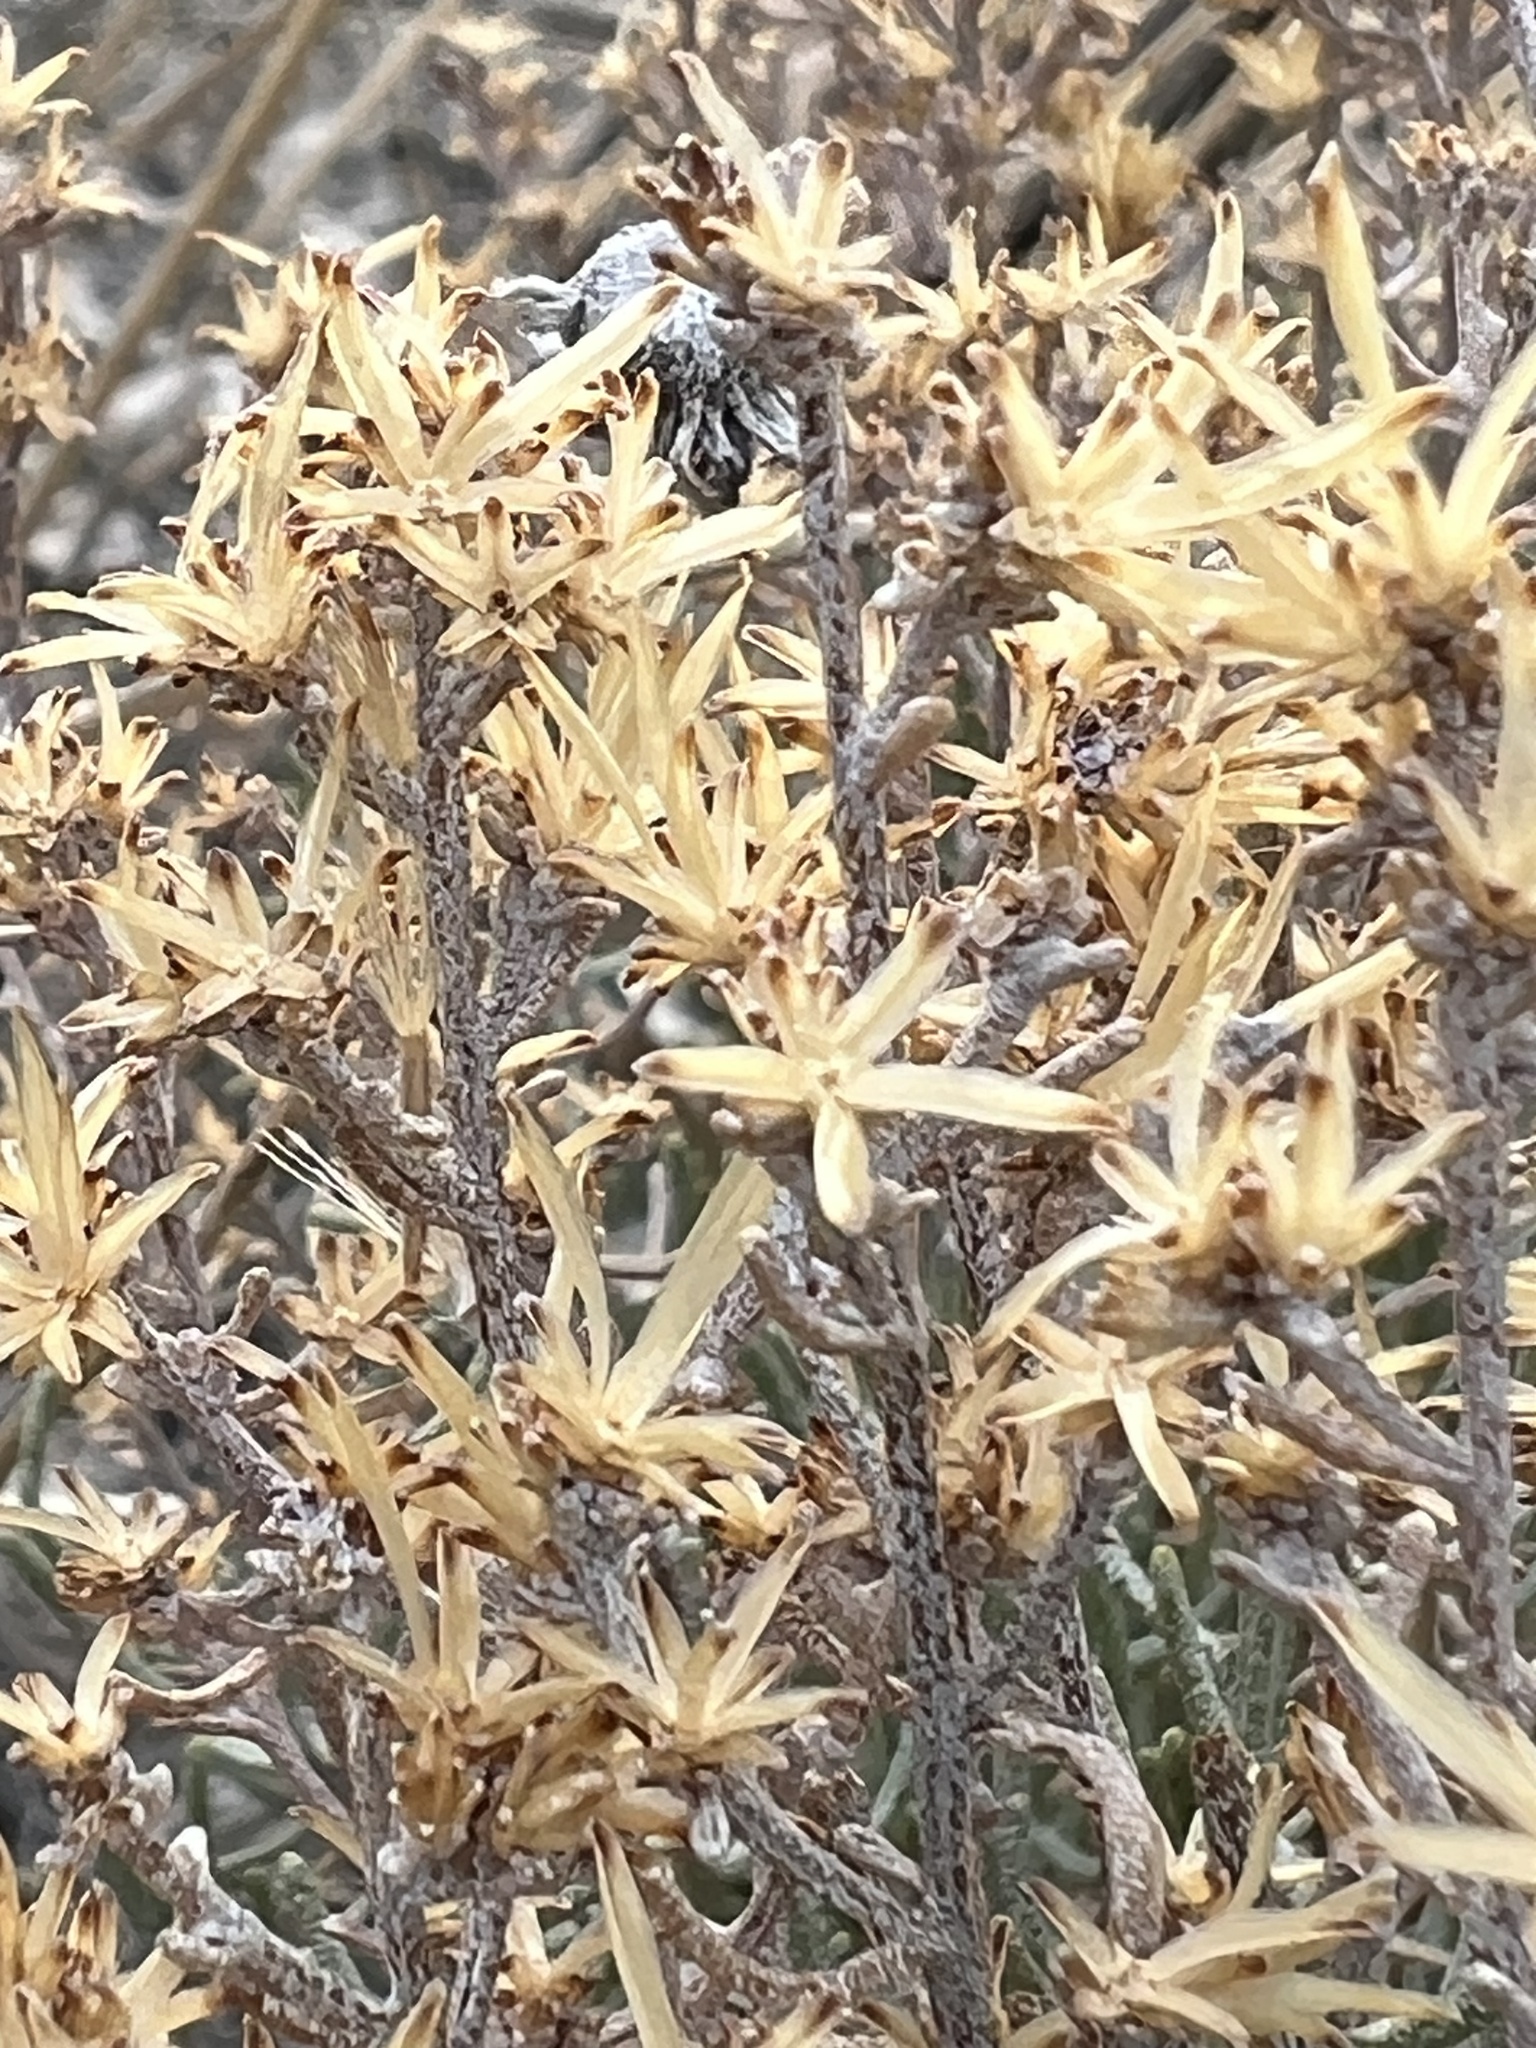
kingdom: Plantae
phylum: Tracheophyta
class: Magnoliopsida
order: Asterales
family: Asteraceae
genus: Ericameria
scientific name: Ericameria teretifolia
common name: Round-leaf rabbitbrush
